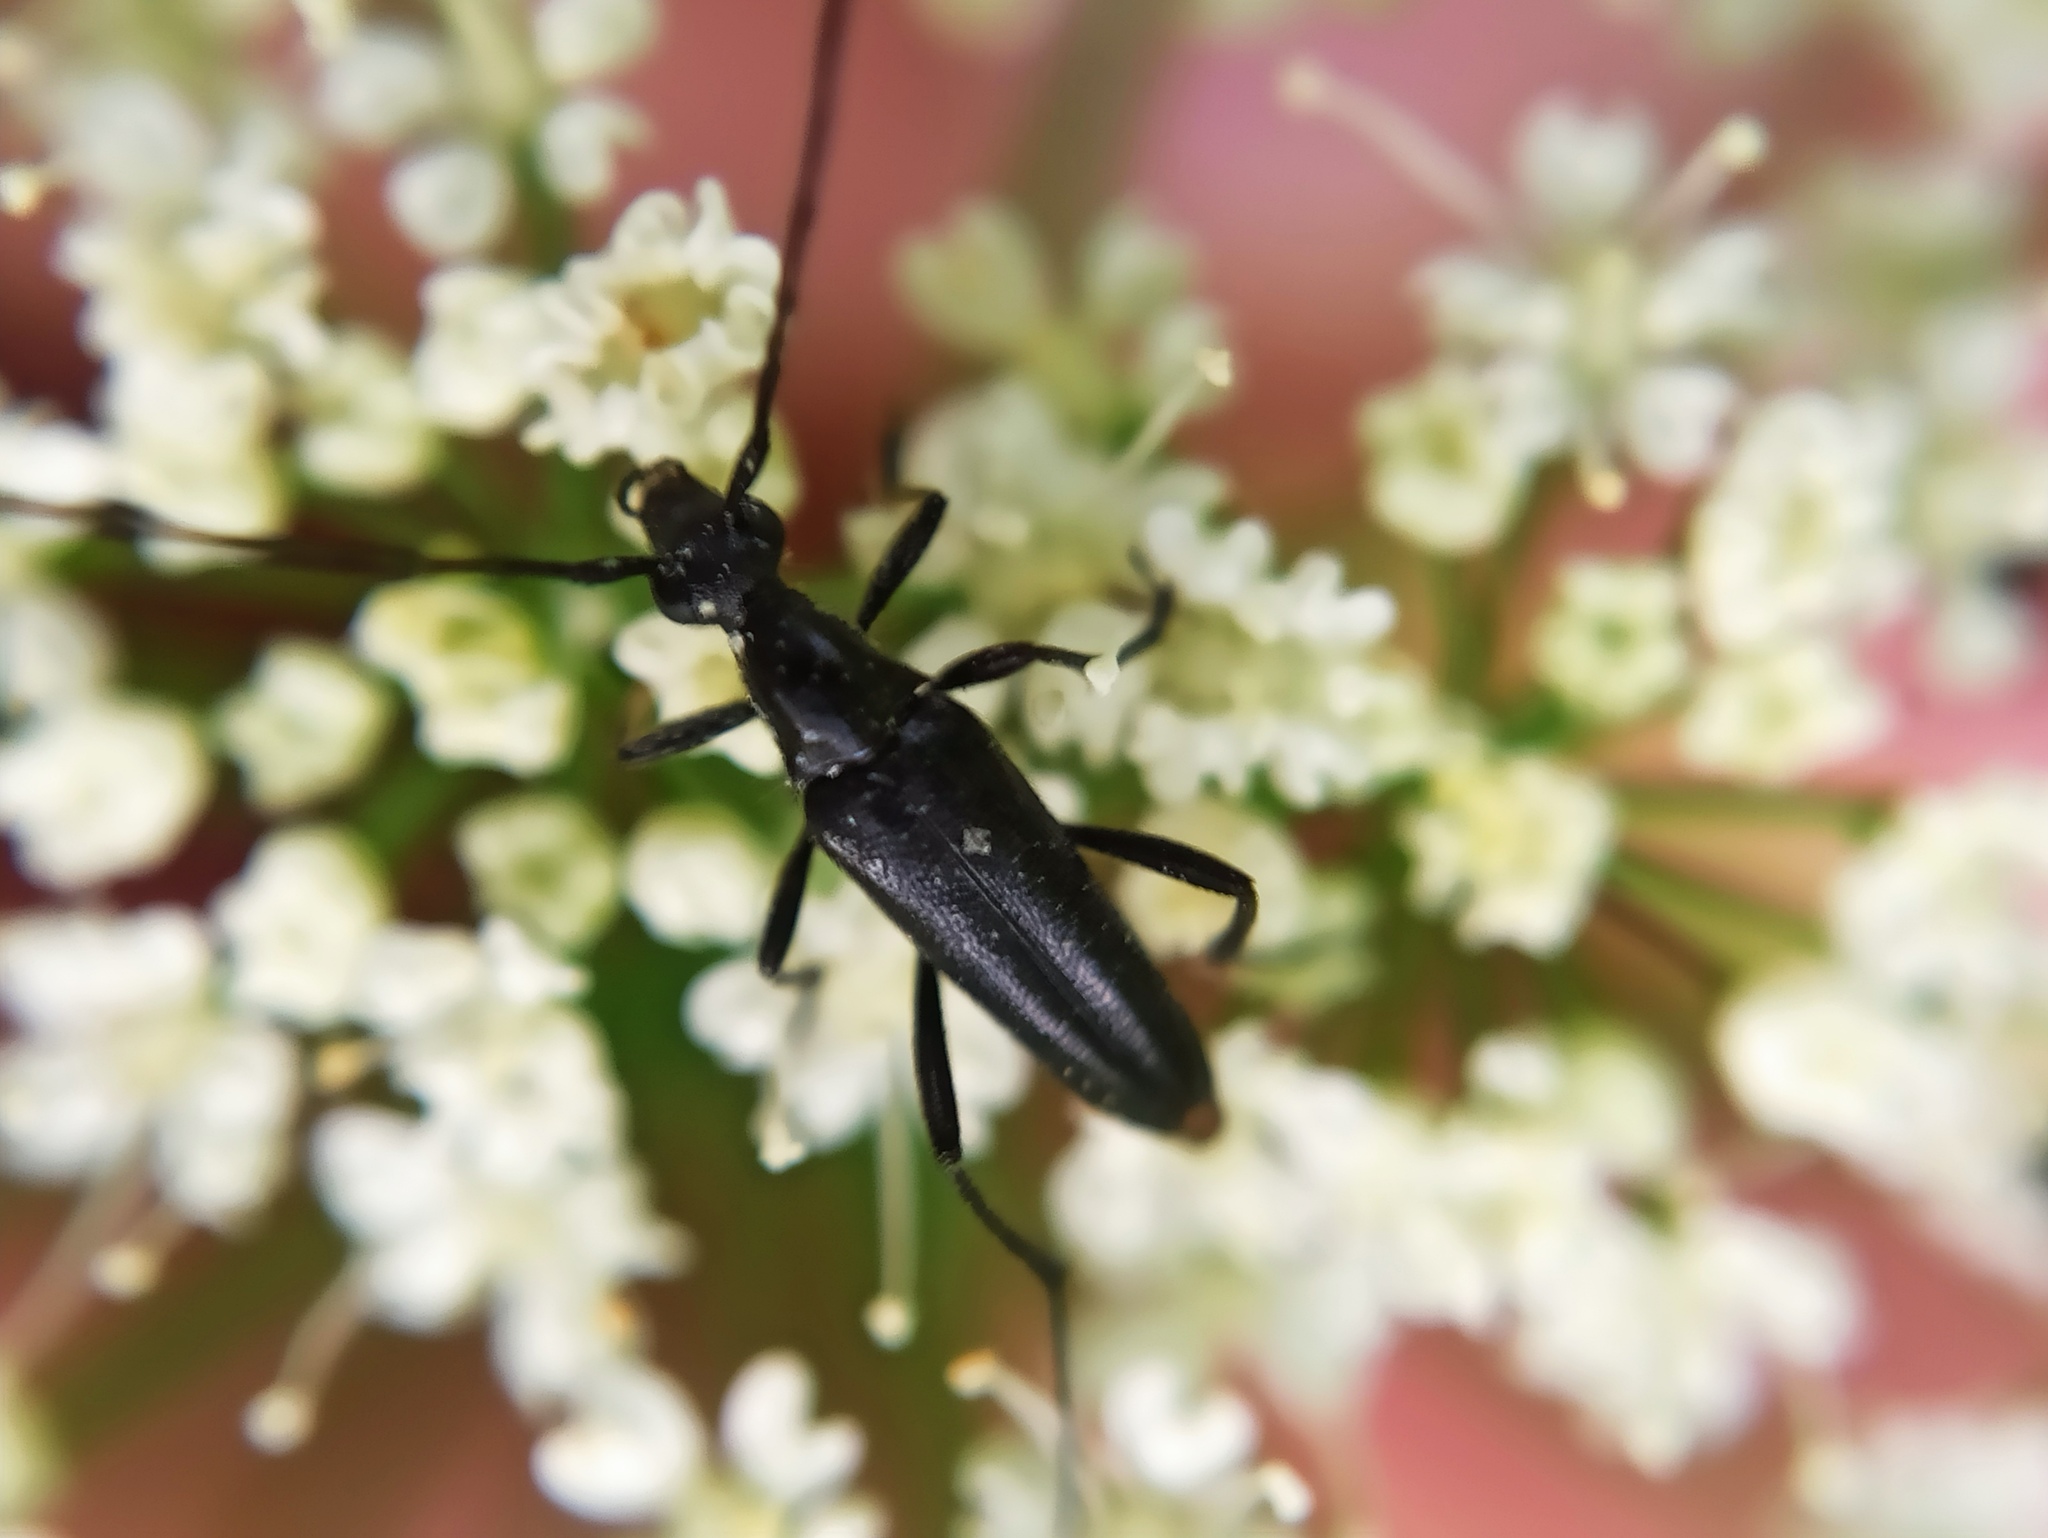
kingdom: Animalia
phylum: Arthropoda
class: Insecta
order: Coleoptera
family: Cerambycidae
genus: Stenurella
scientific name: Stenurella nigra
